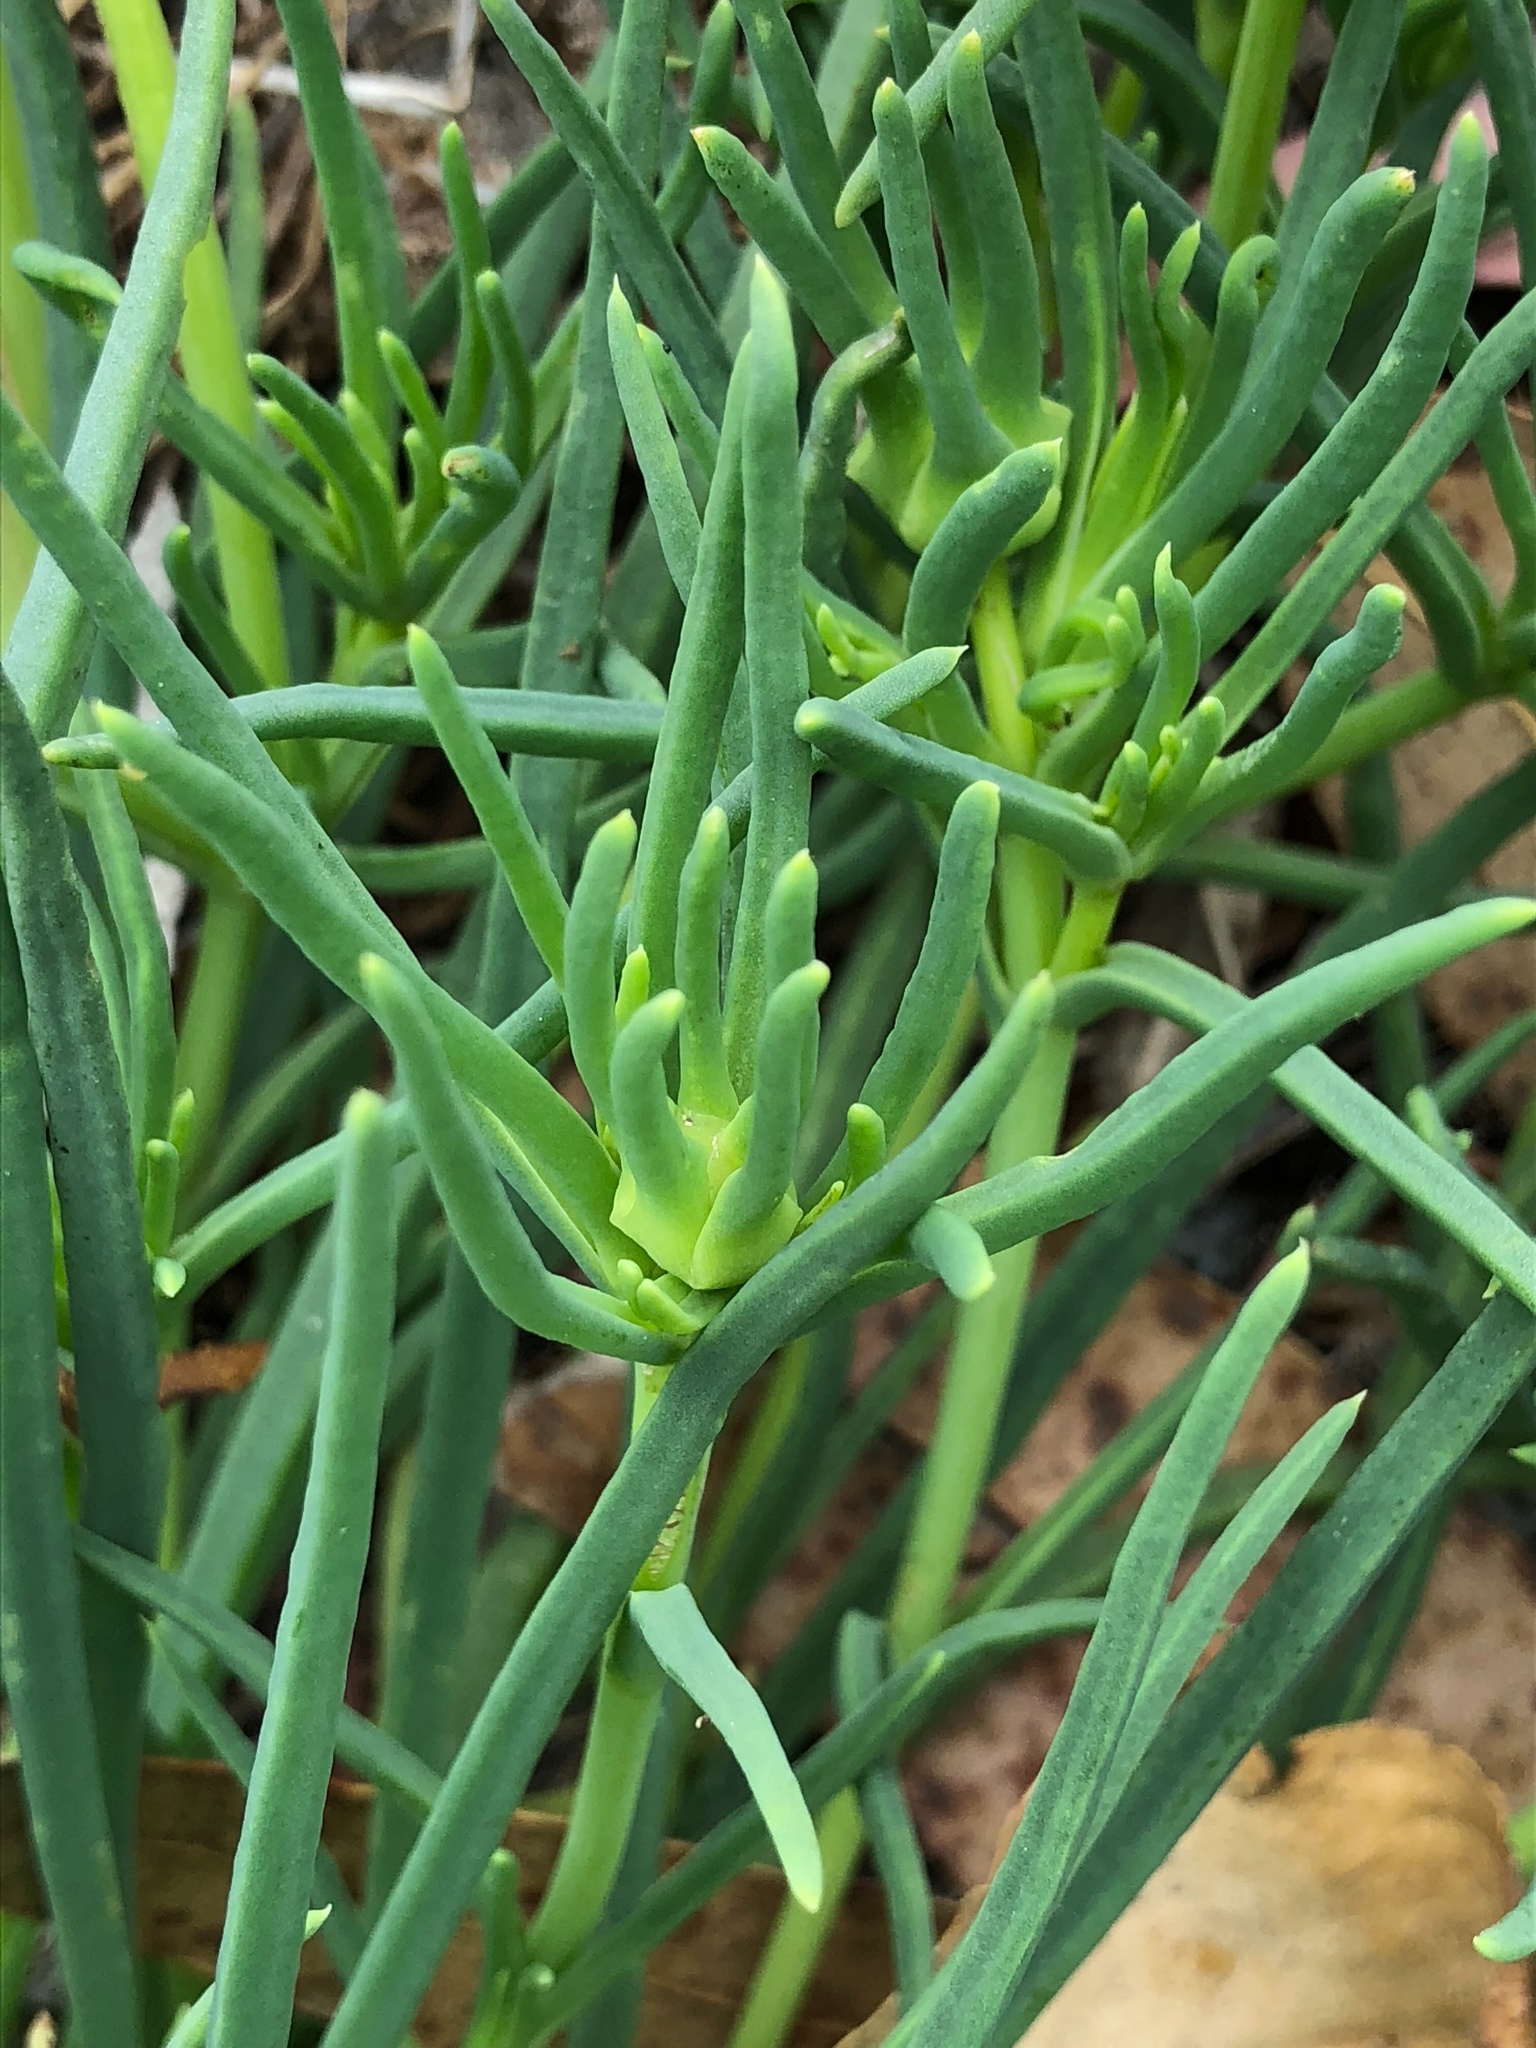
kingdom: Plantae
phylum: Tracheophyta
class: Magnoliopsida
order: Caryophyllales
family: Aizoaceae
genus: Conicosia
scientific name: Conicosia pugioniformis
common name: Narrow-leaved iceplant
